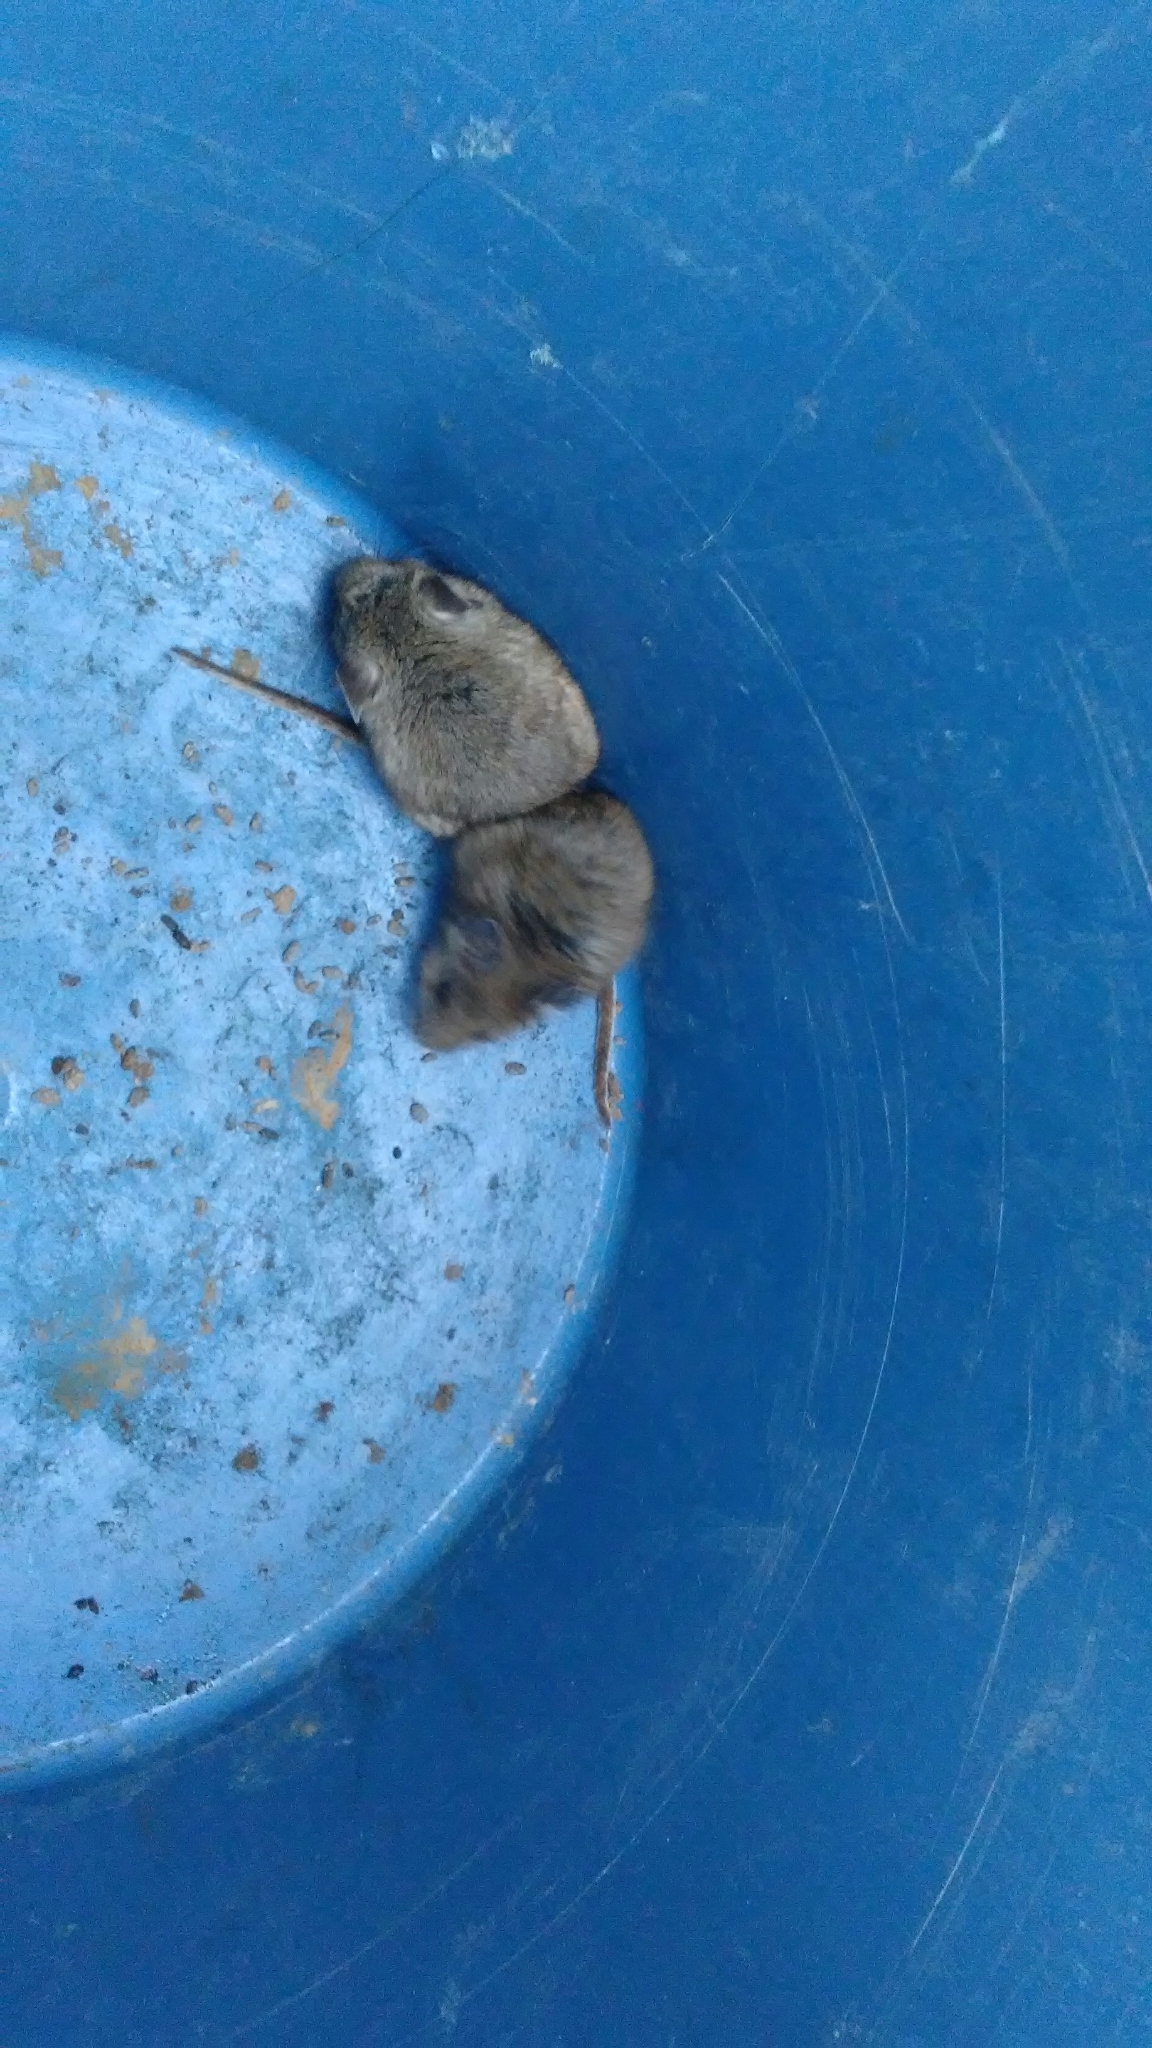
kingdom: Animalia
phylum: Chordata
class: Mammalia
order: Rodentia
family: Cricetidae
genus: Peromyscus
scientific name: Peromyscus maniculatus
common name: Deer mouse
